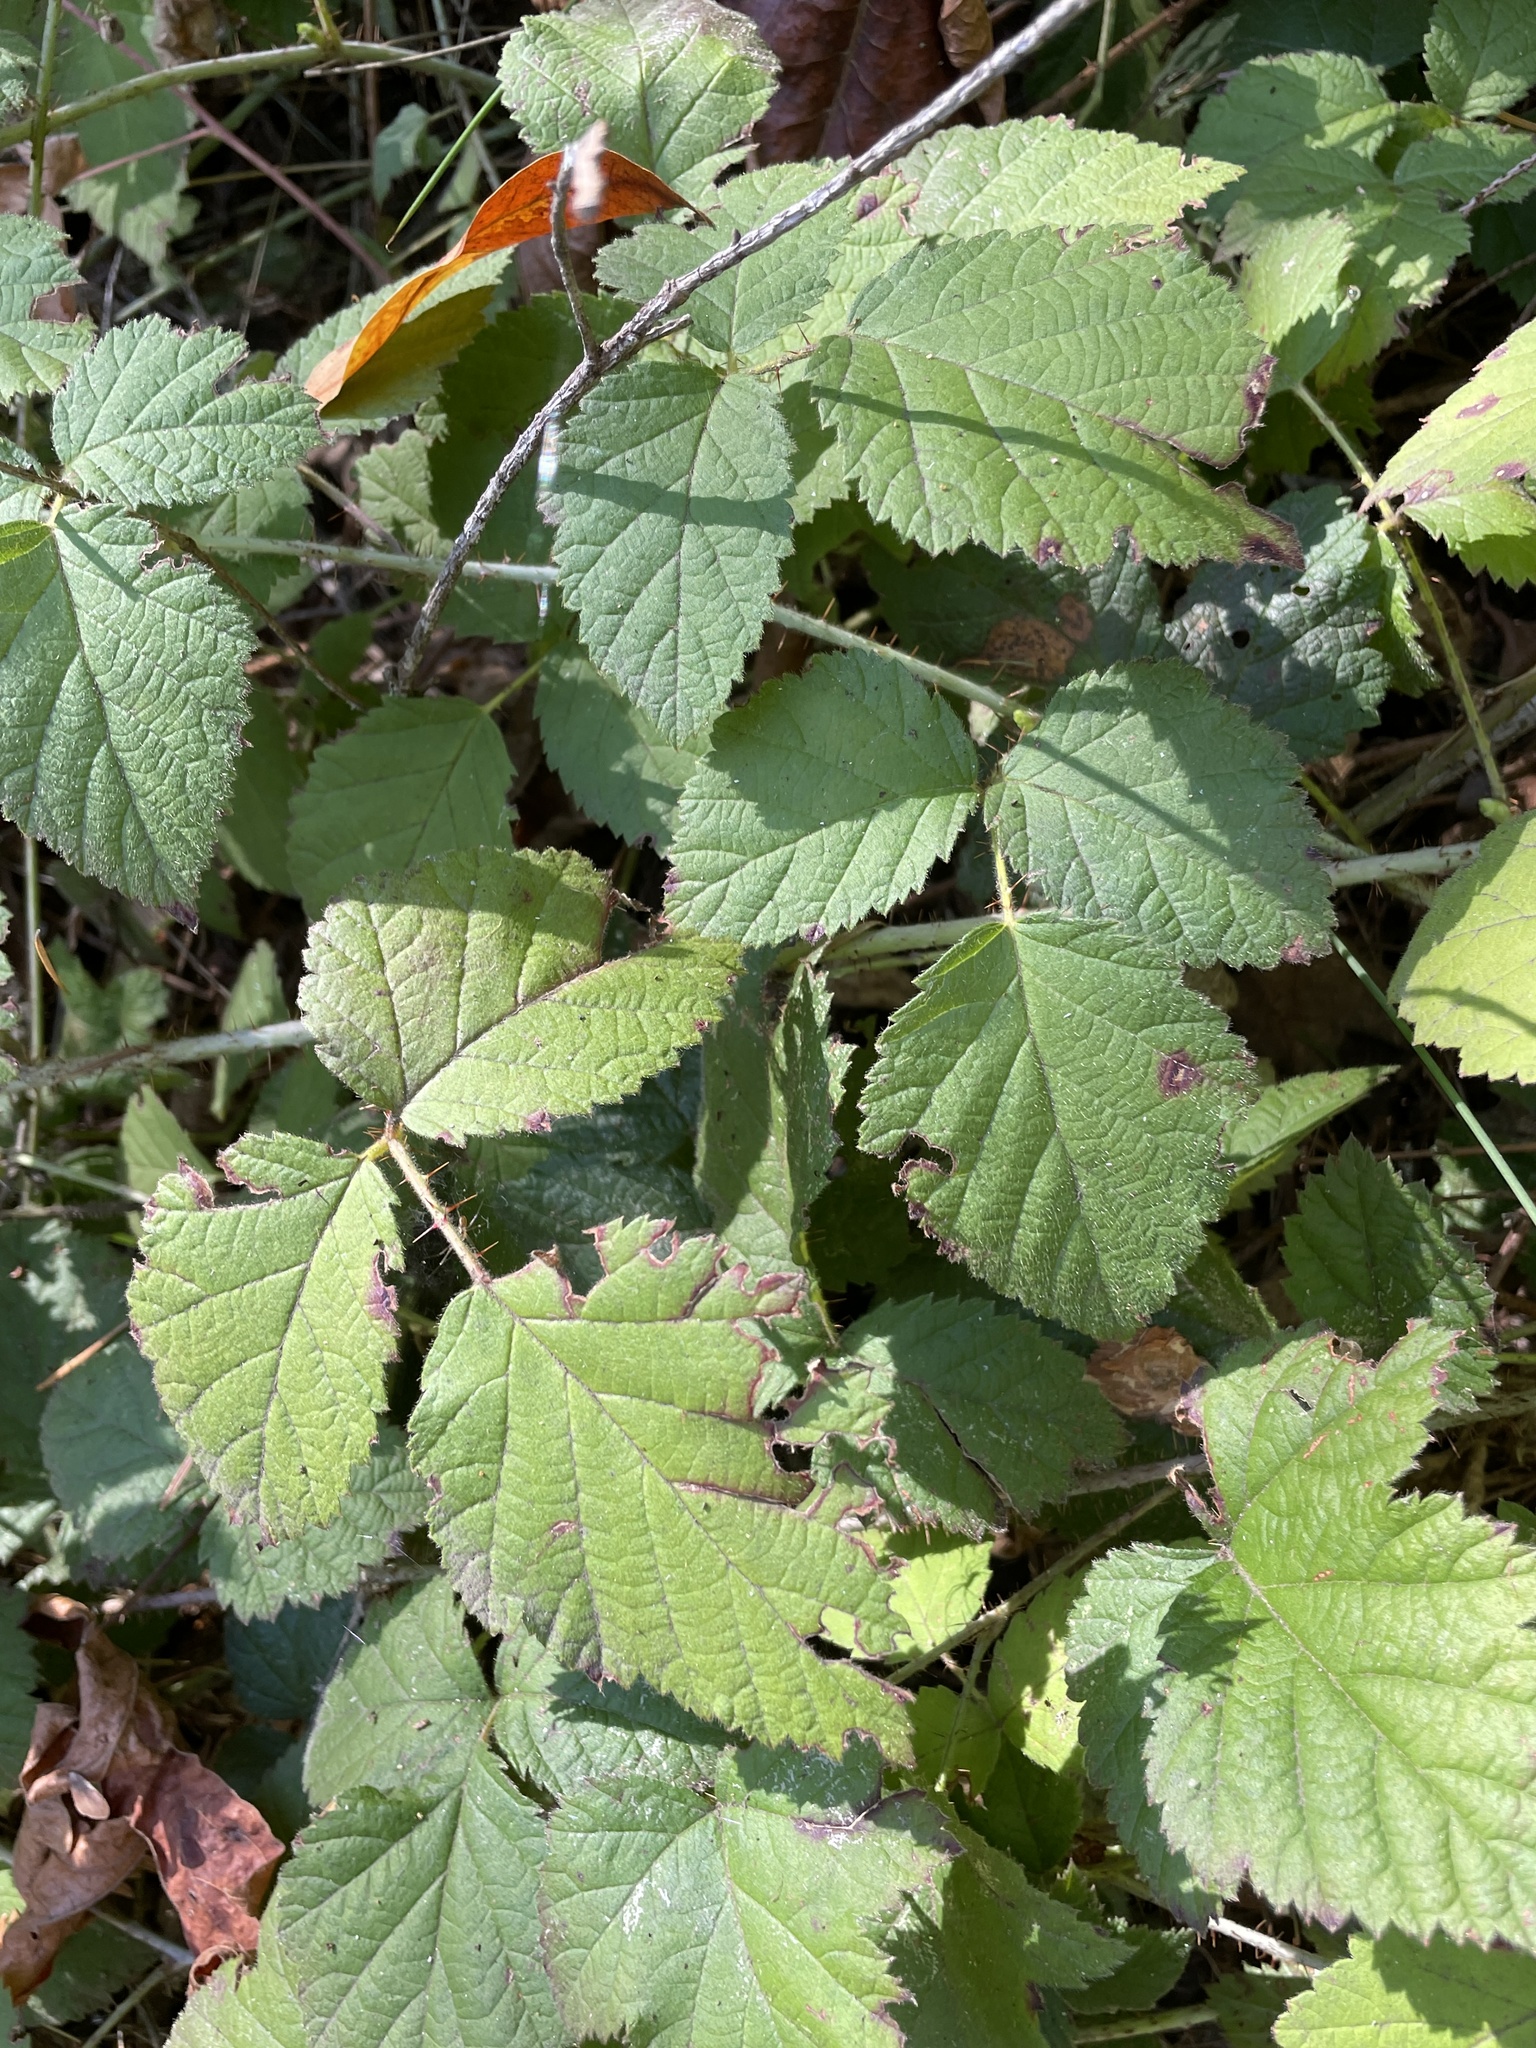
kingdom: Plantae
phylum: Tracheophyta
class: Magnoliopsida
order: Rosales
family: Rosaceae
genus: Rubus
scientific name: Rubus ursinus
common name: Pacific blackberry
